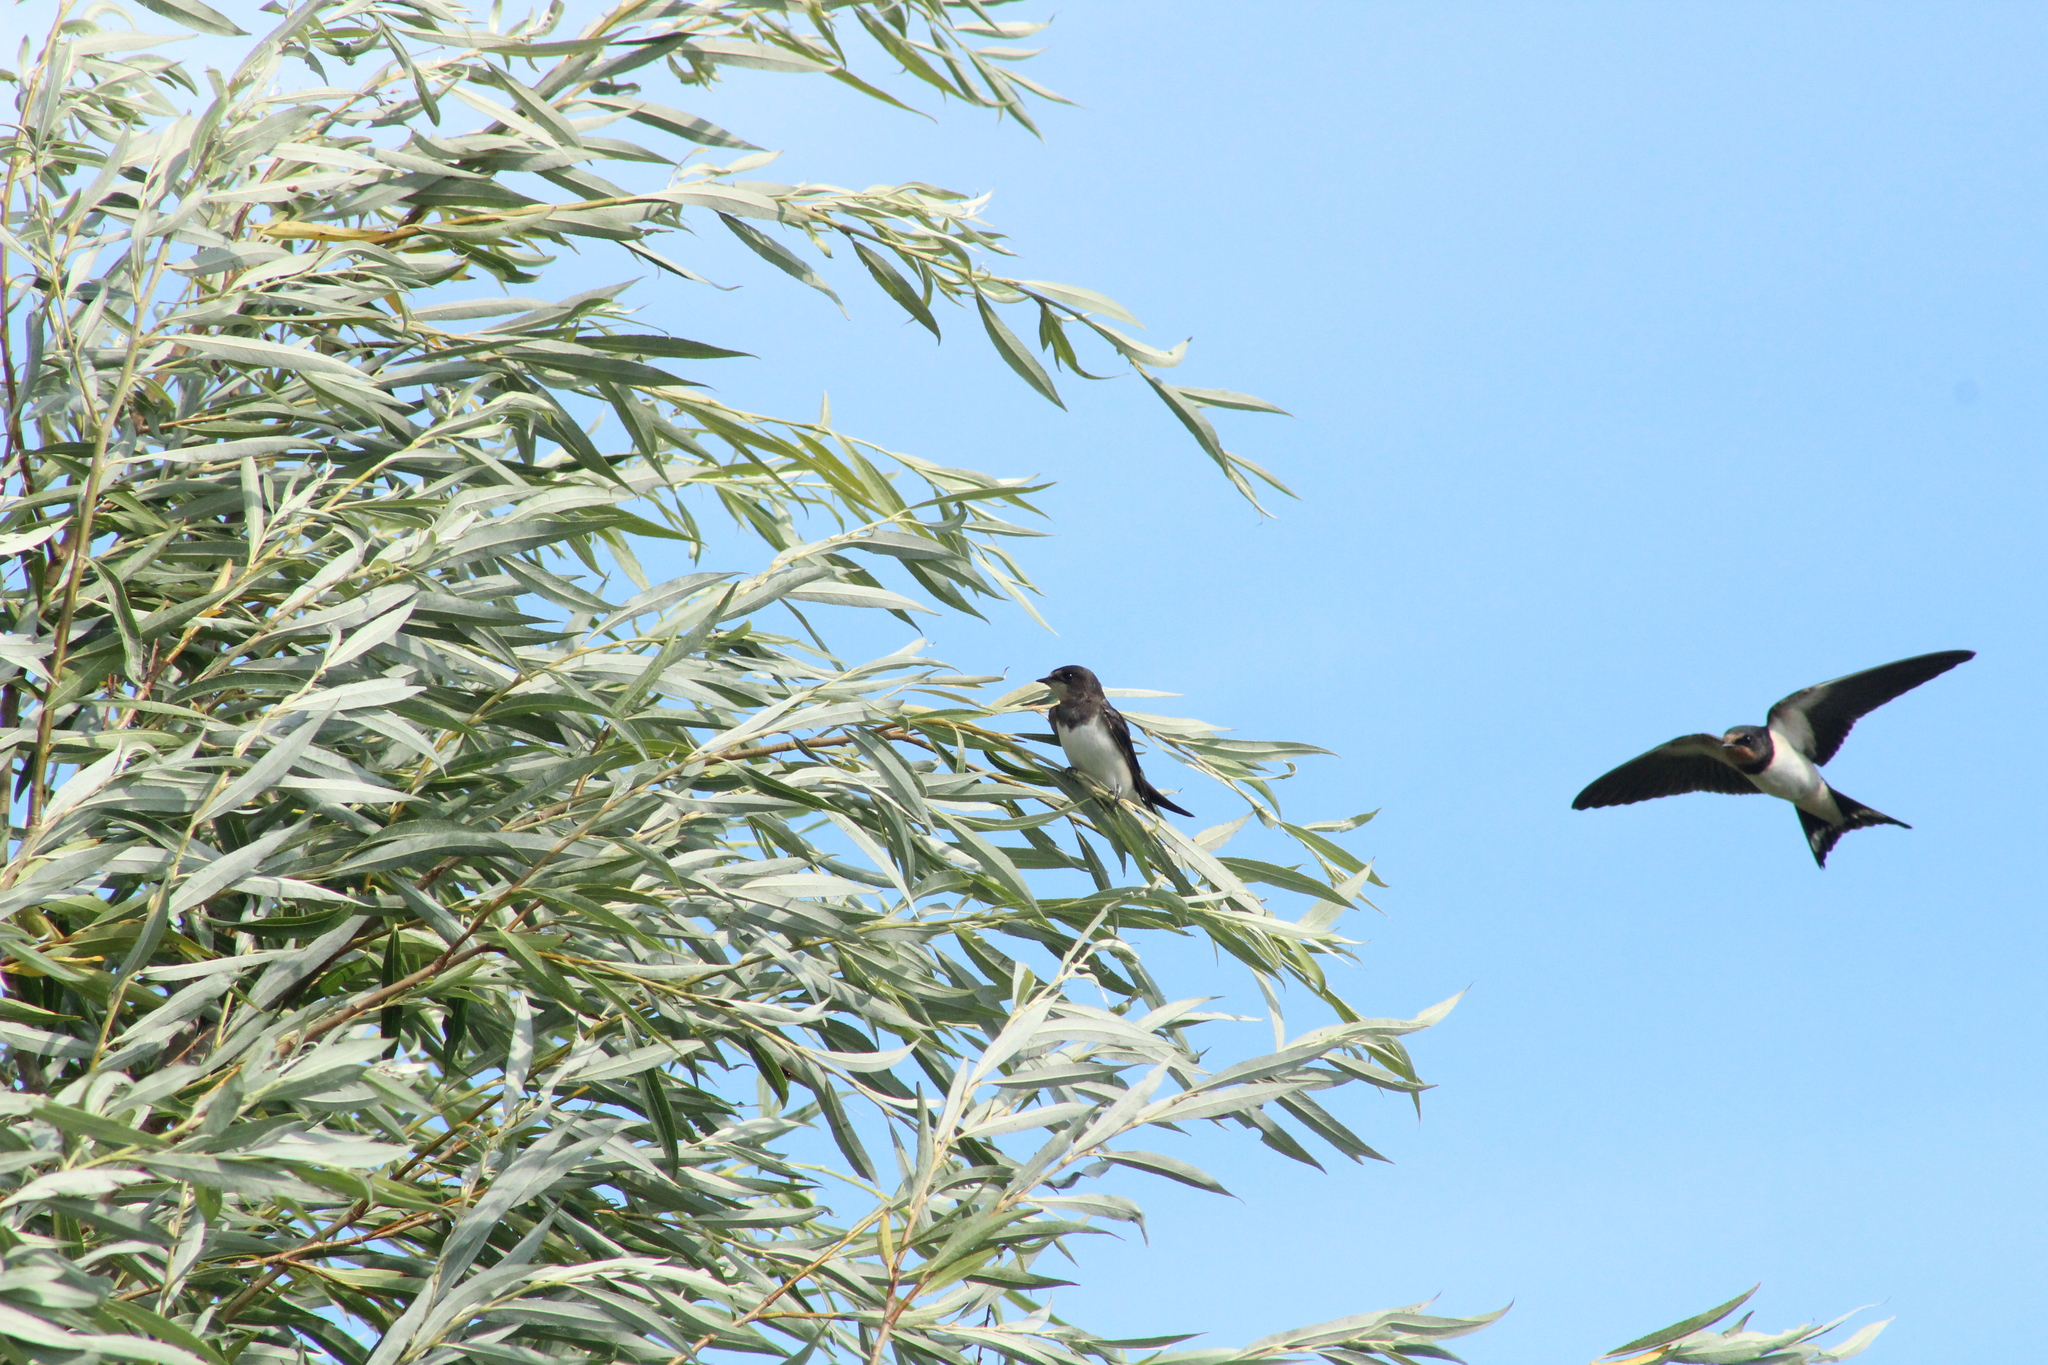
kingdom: Animalia
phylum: Chordata
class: Aves
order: Passeriformes
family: Hirundinidae
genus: Hirundo
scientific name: Hirundo rustica
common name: Barn swallow
